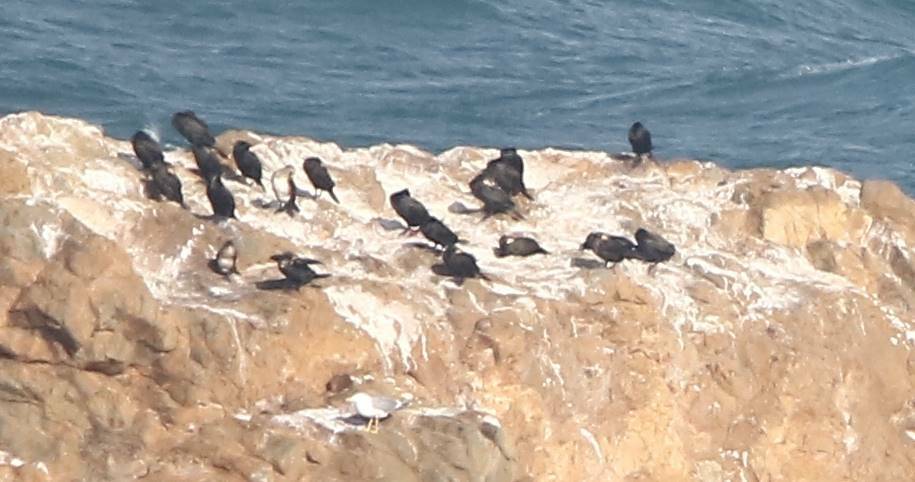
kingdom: Animalia
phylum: Chordata
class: Aves
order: Suliformes
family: Phalacrocoracidae
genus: Phalacrocorax
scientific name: Phalacrocorax carbo
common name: Great cormorant
